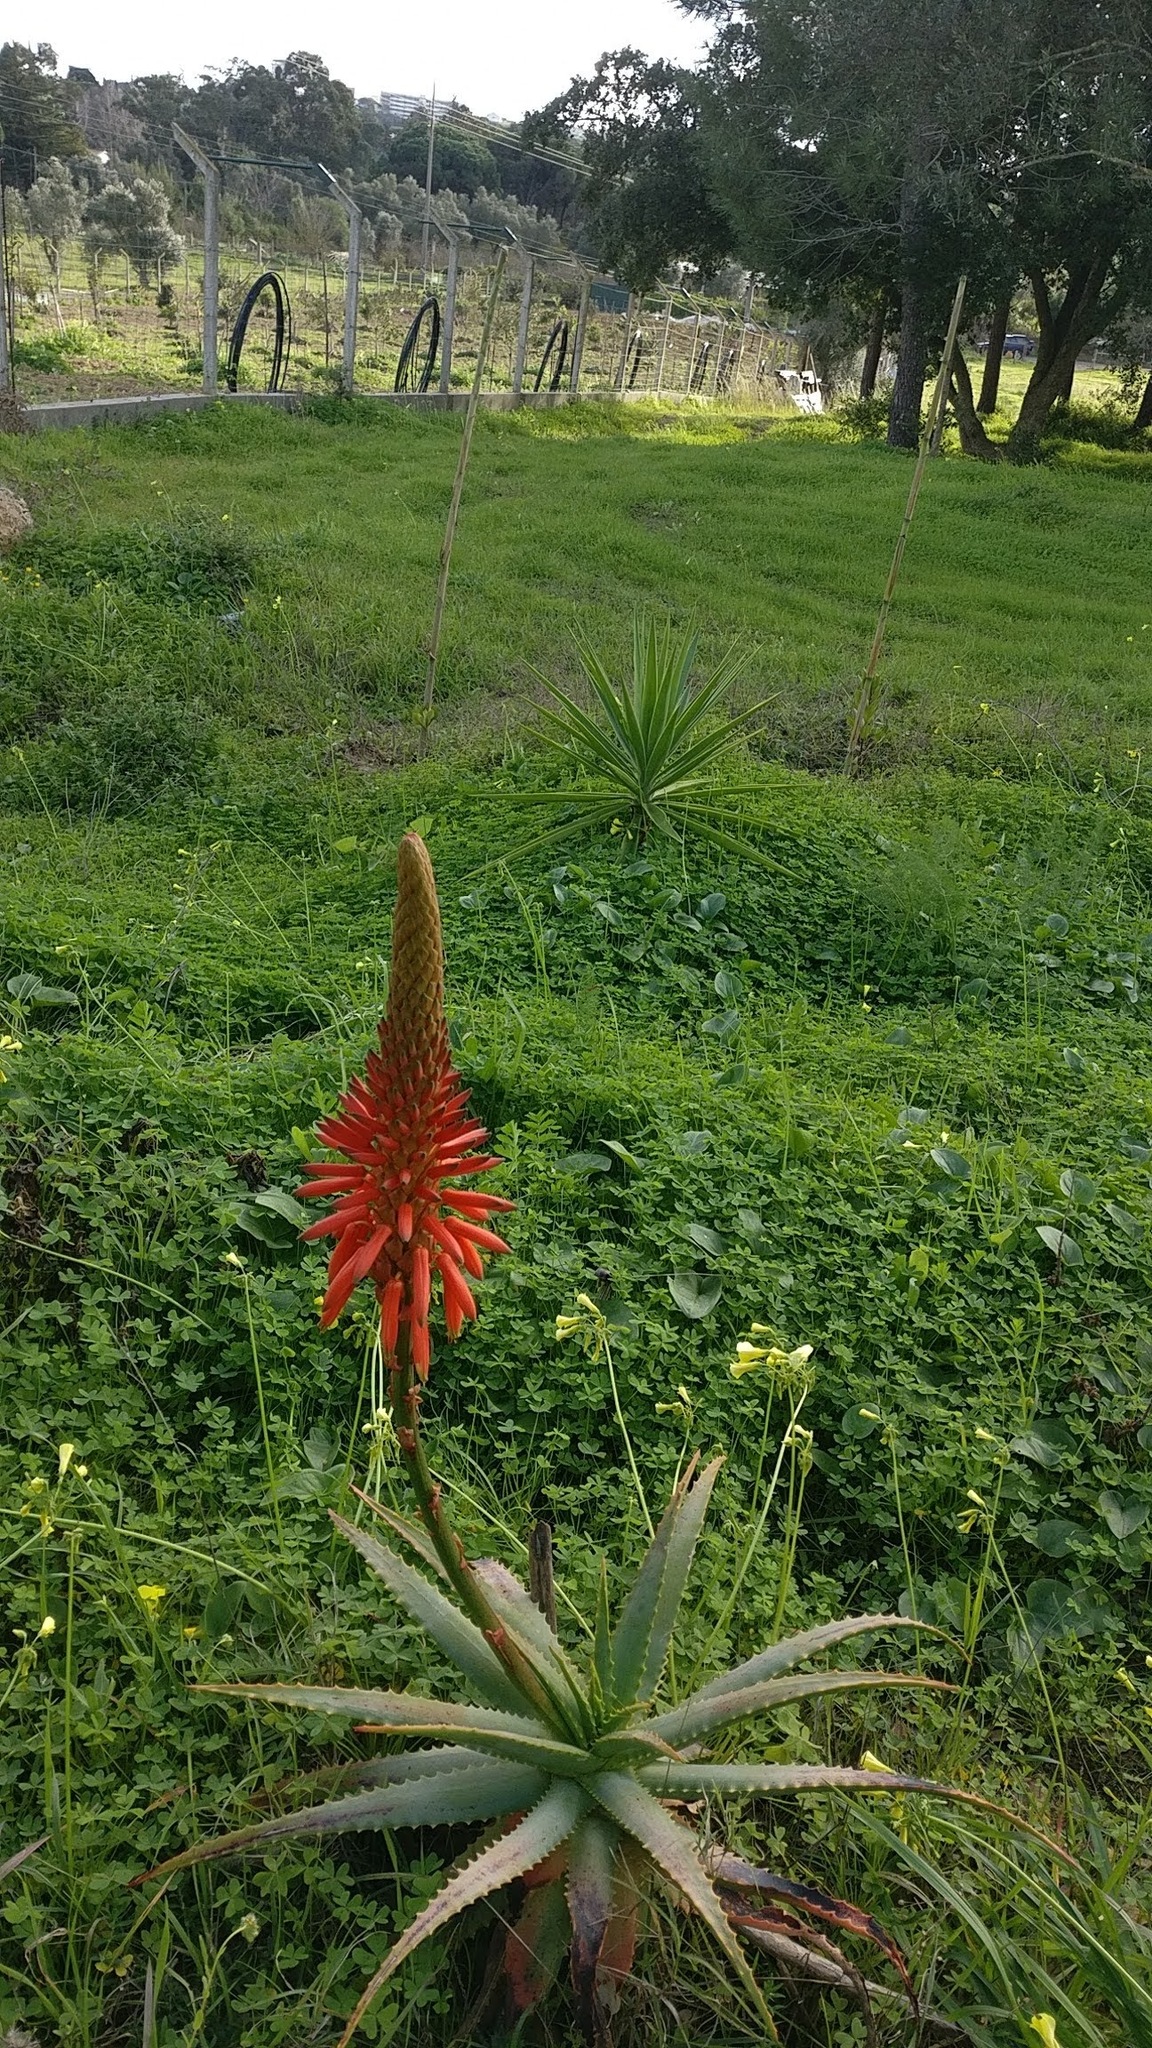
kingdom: Plantae
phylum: Tracheophyta
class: Liliopsida
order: Asparagales
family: Asphodelaceae
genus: Aloe
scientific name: Aloe arborescens
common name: Candelabra aloe
